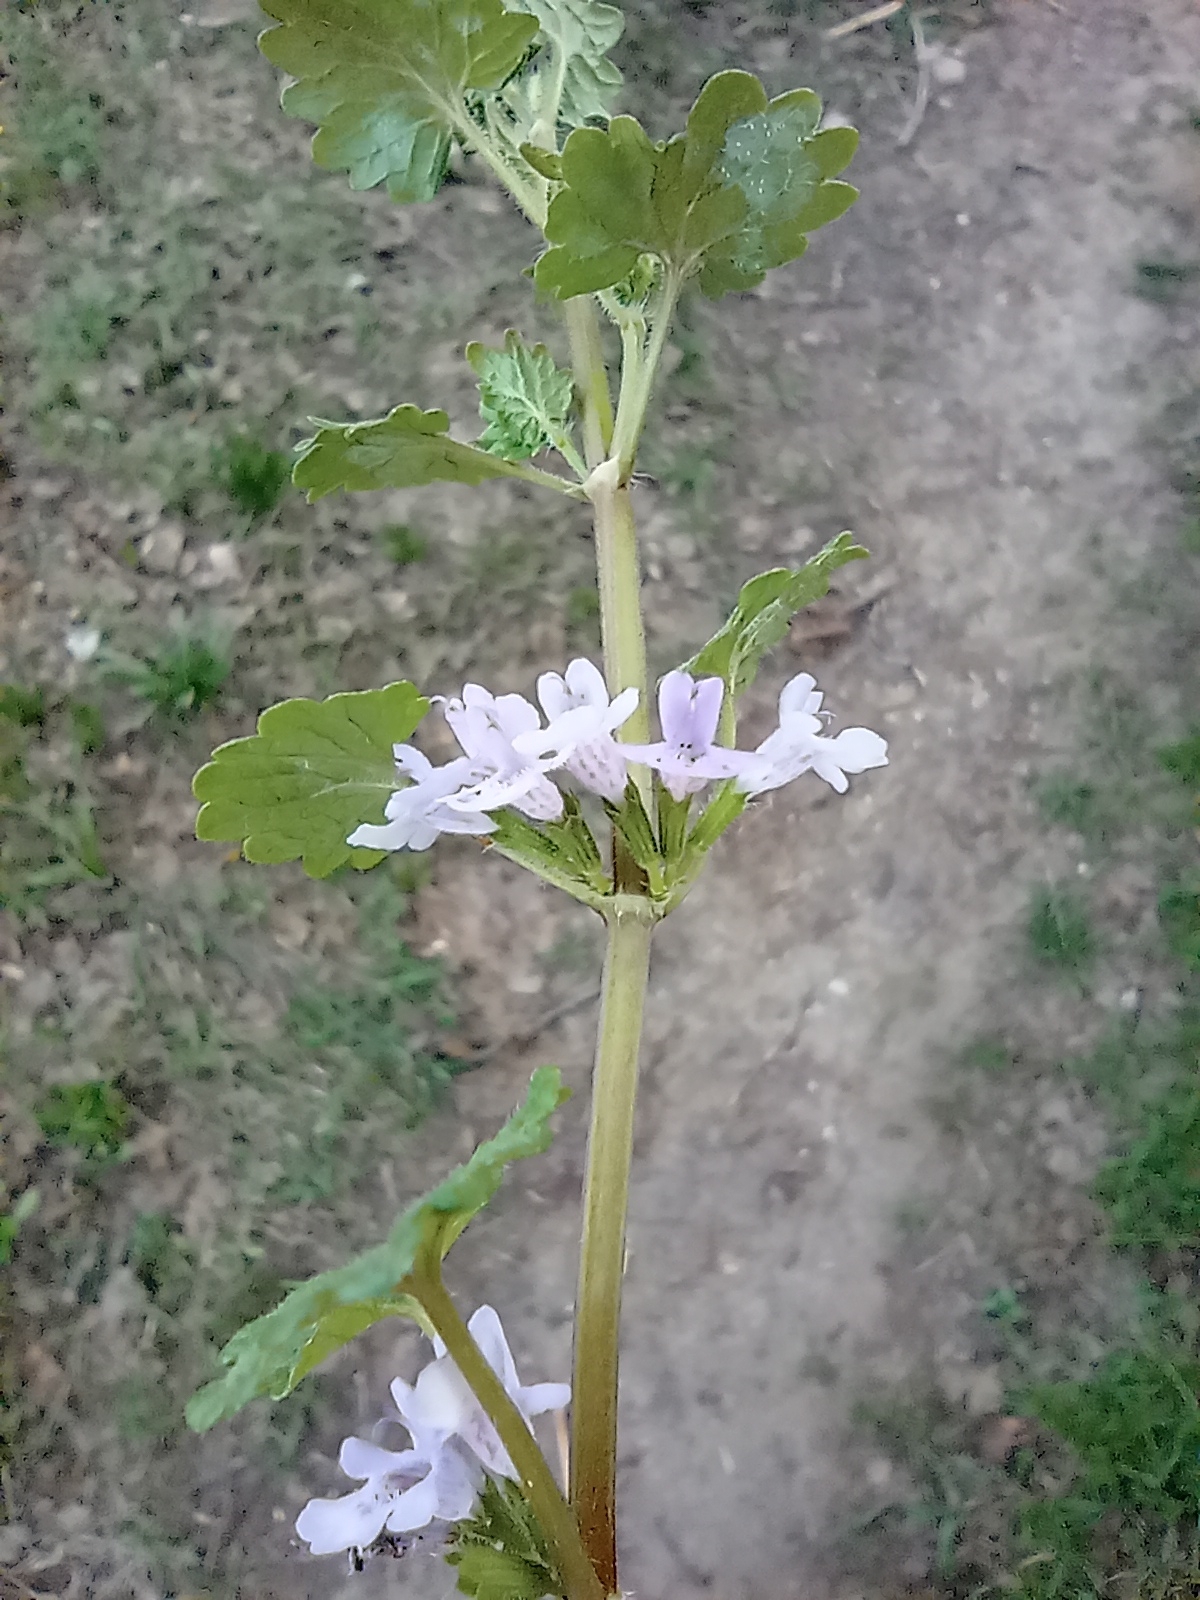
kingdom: Plantae
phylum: Tracheophyta
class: Magnoliopsida
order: Lamiales
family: Lamiaceae
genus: Glechoma
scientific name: Glechoma hederacea
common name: Ground ivy
